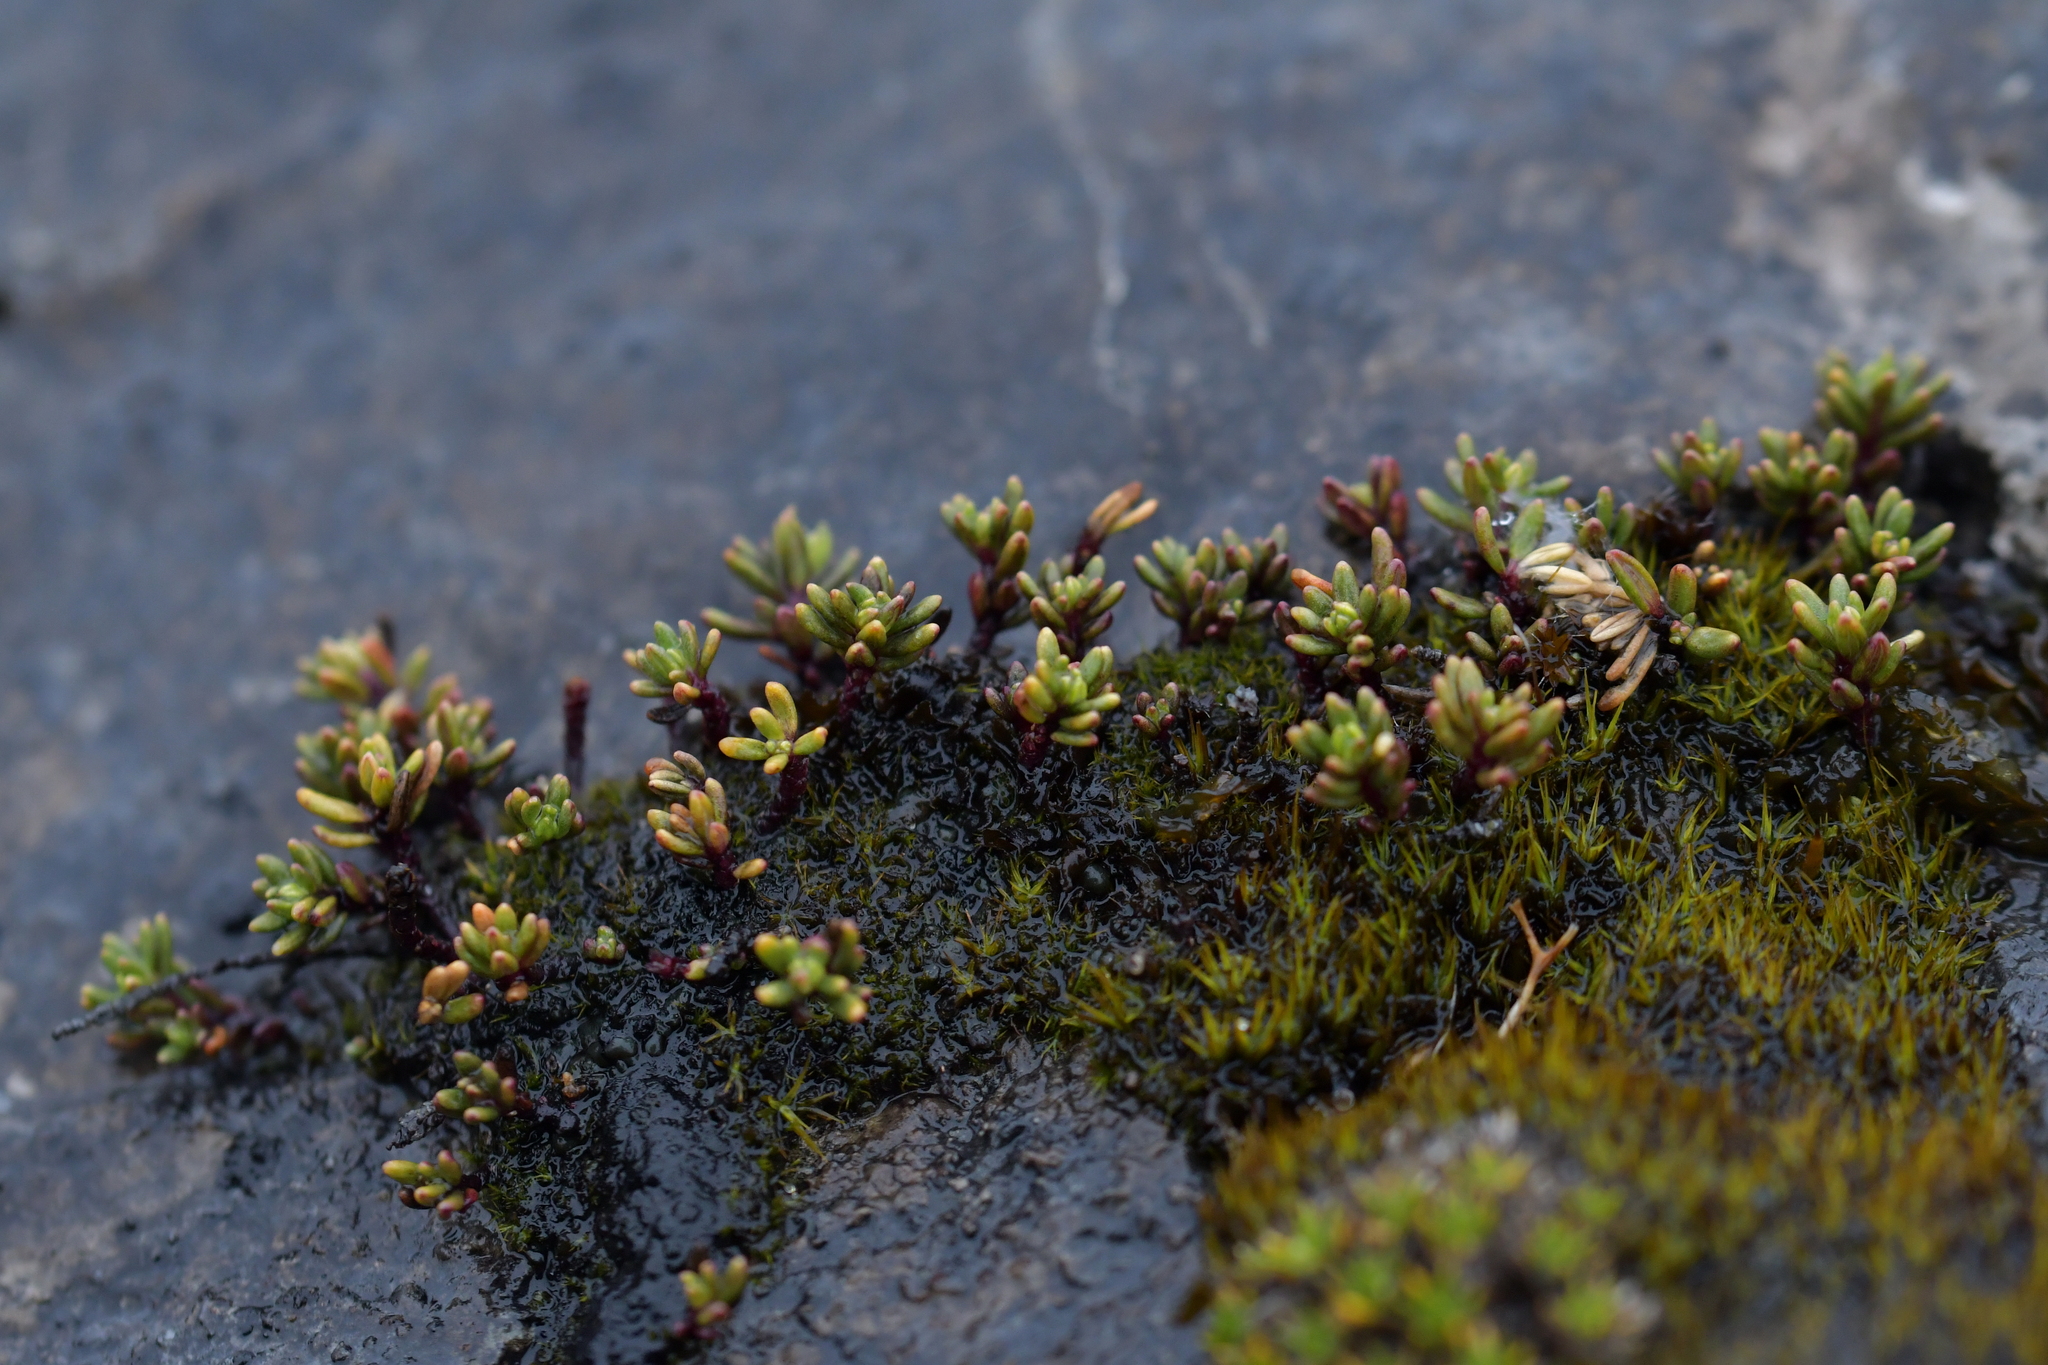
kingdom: Plantae
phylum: Tracheophyta
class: Magnoliopsida
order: Malpighiales
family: Phyllanthaceae
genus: Poranthera
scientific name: Poranthera alpina
